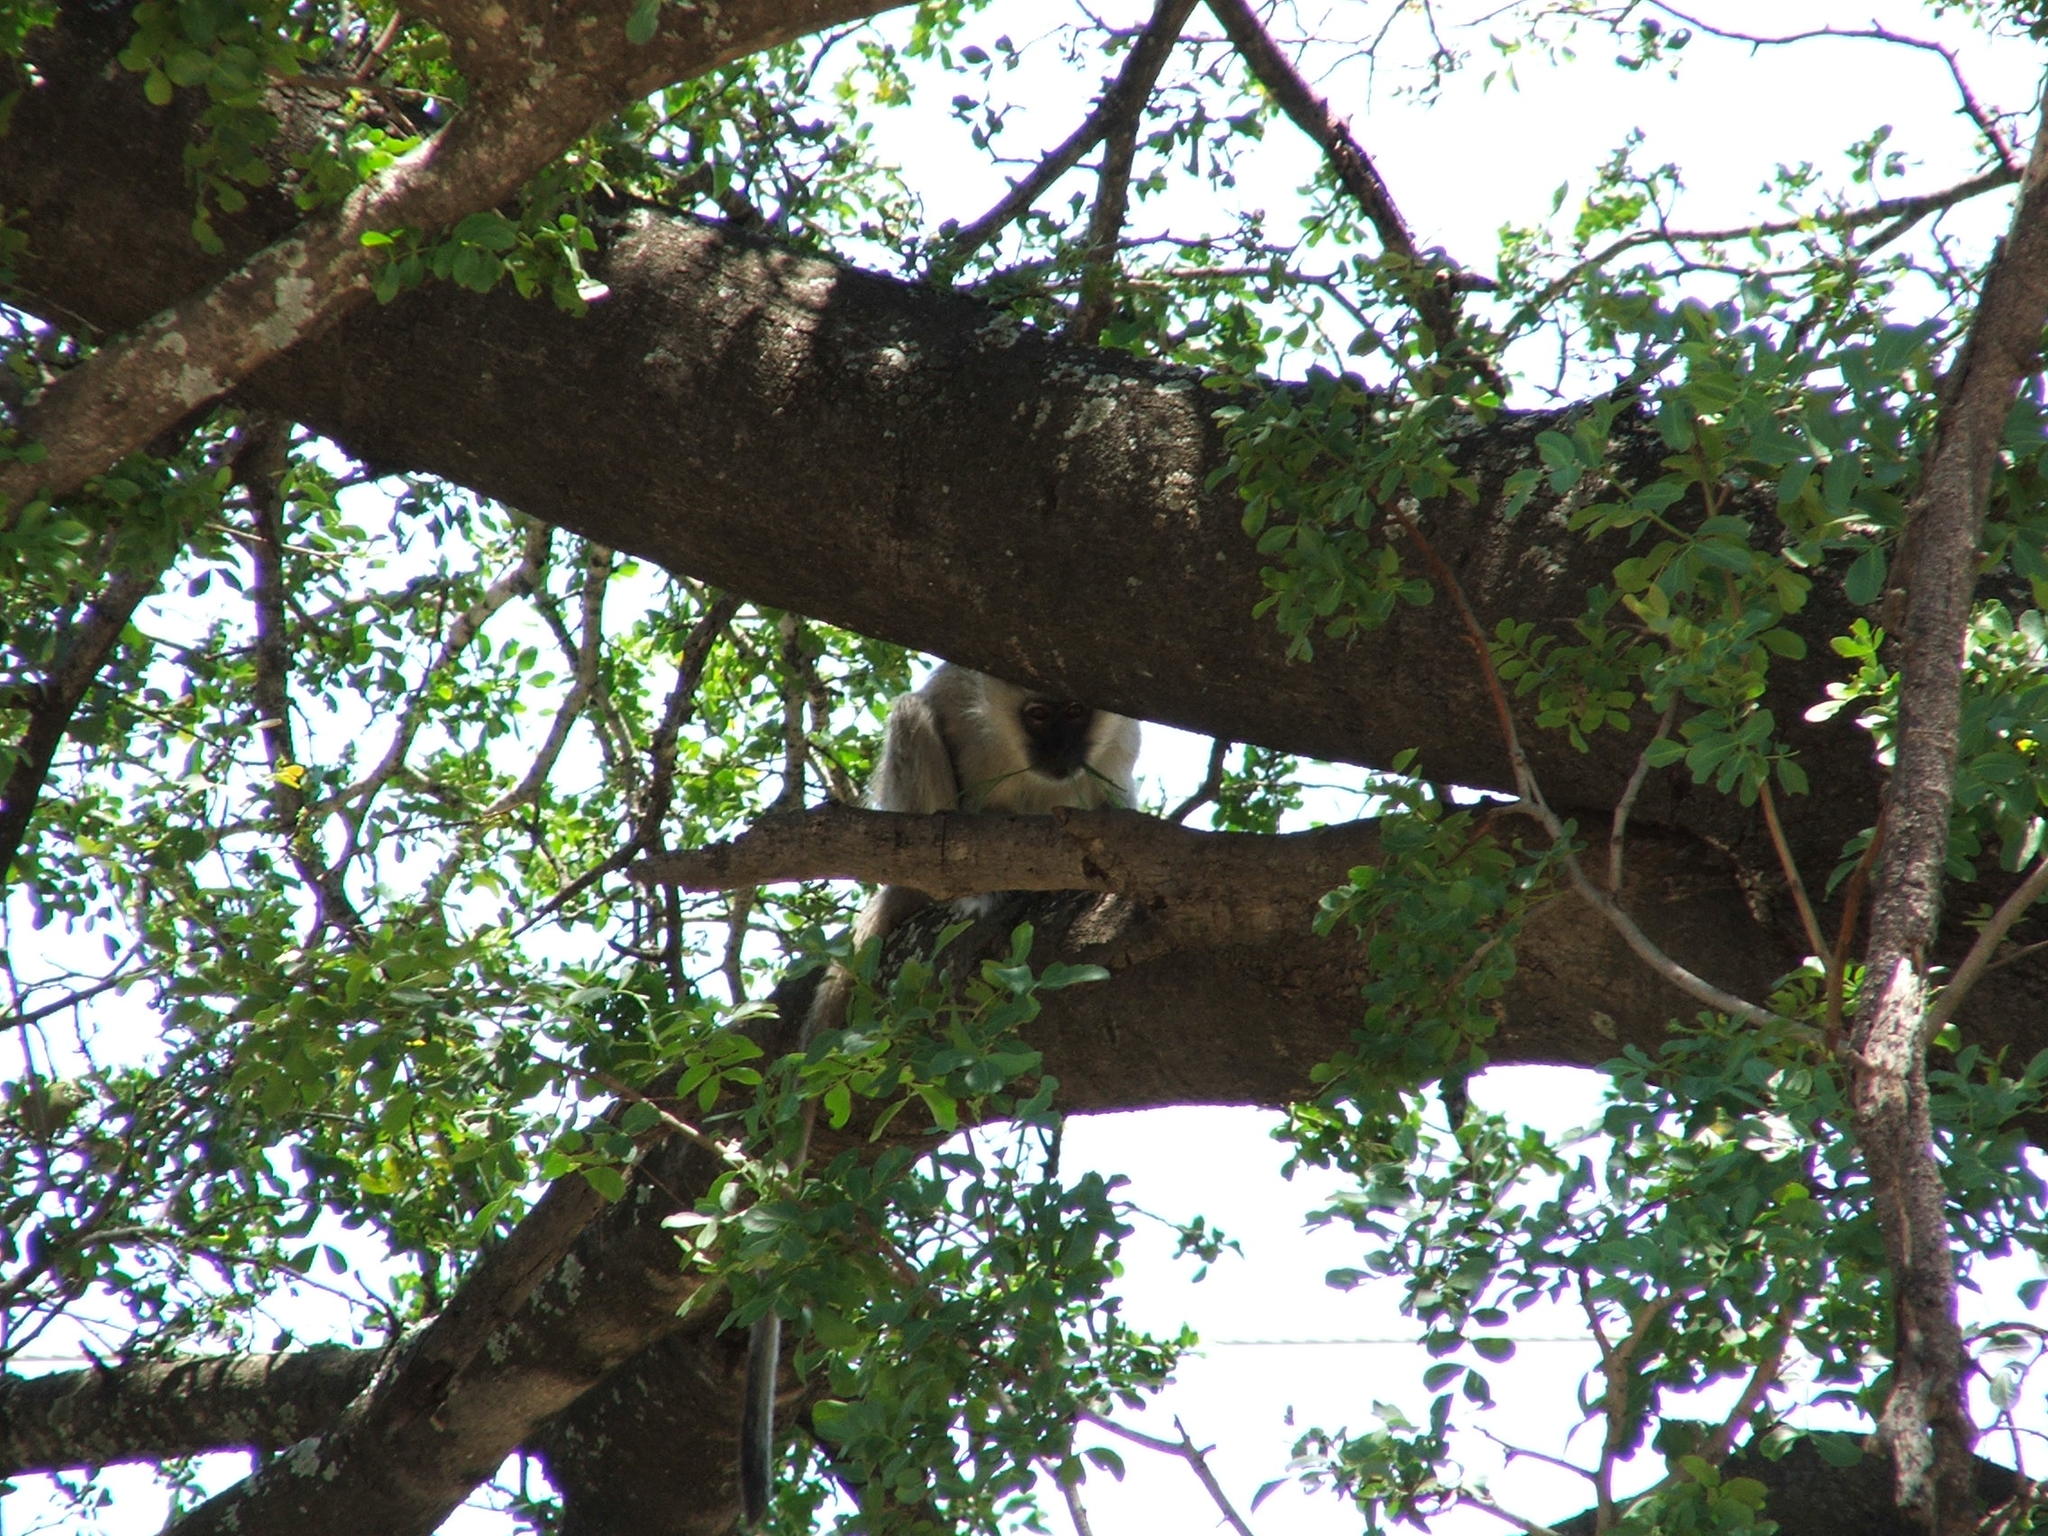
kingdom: Animalia
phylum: Chordata
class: Mammalia
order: Primates
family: Cercopithecidae
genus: Chlorocebus
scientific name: Chlorocebus pygerythrus
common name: Vervet monkey
